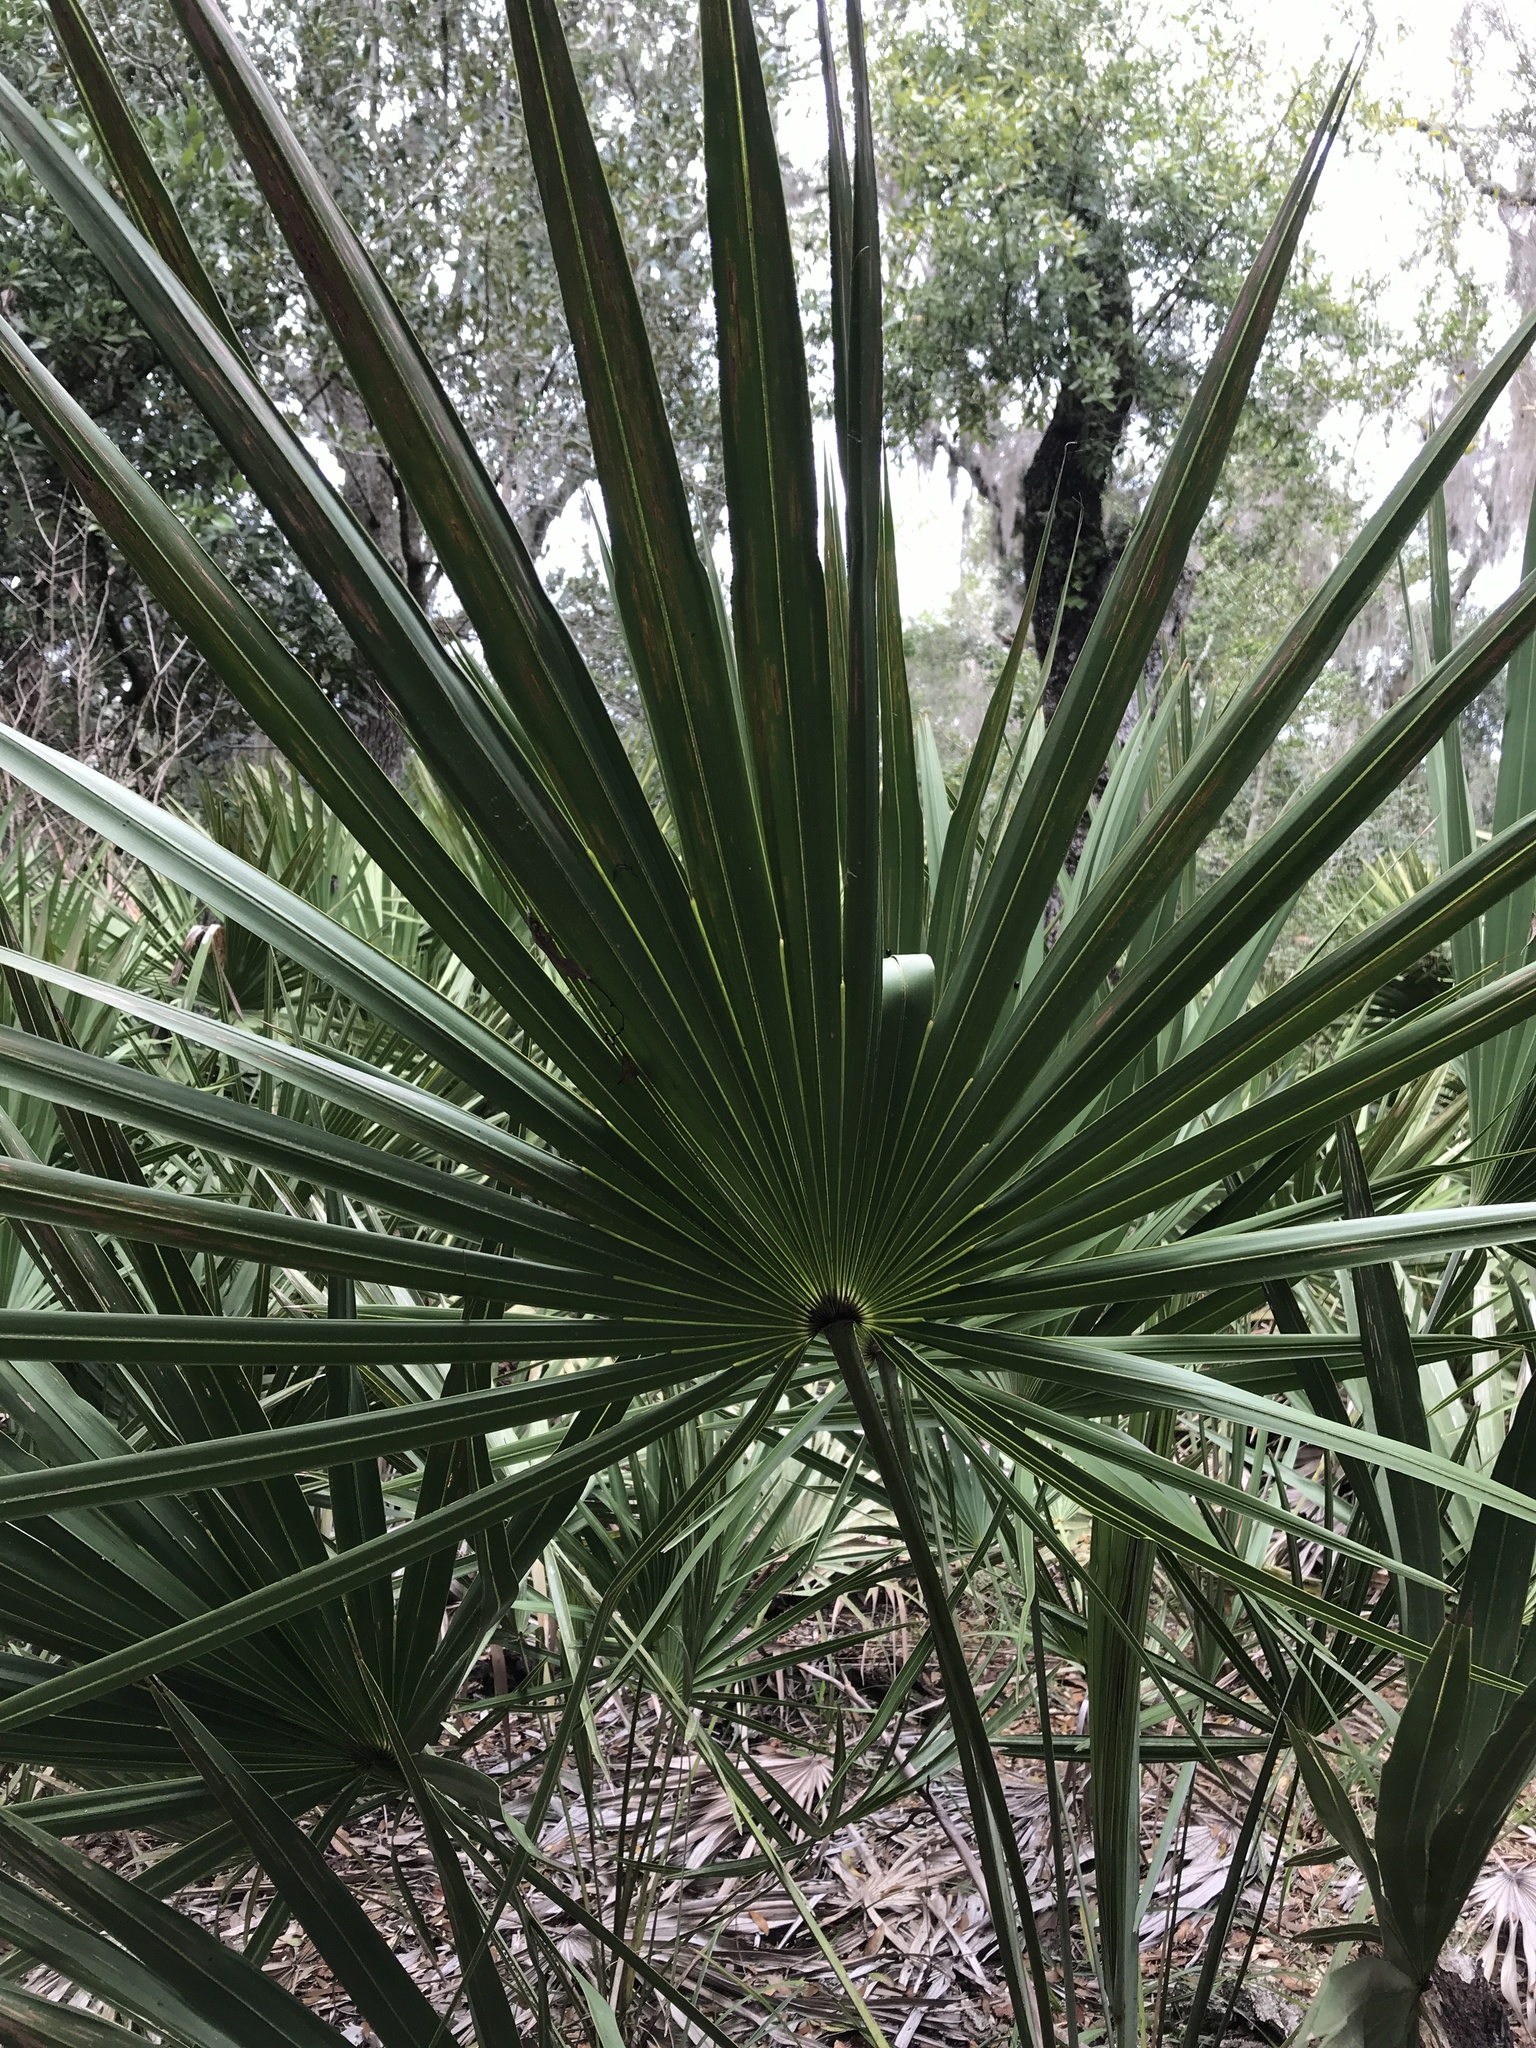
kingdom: Plantae
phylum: Tracheophyta
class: Liliopsida
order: Arecales
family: Arecaceae
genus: Serenoa
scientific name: Serenoa repens
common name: Saw-palmetto
